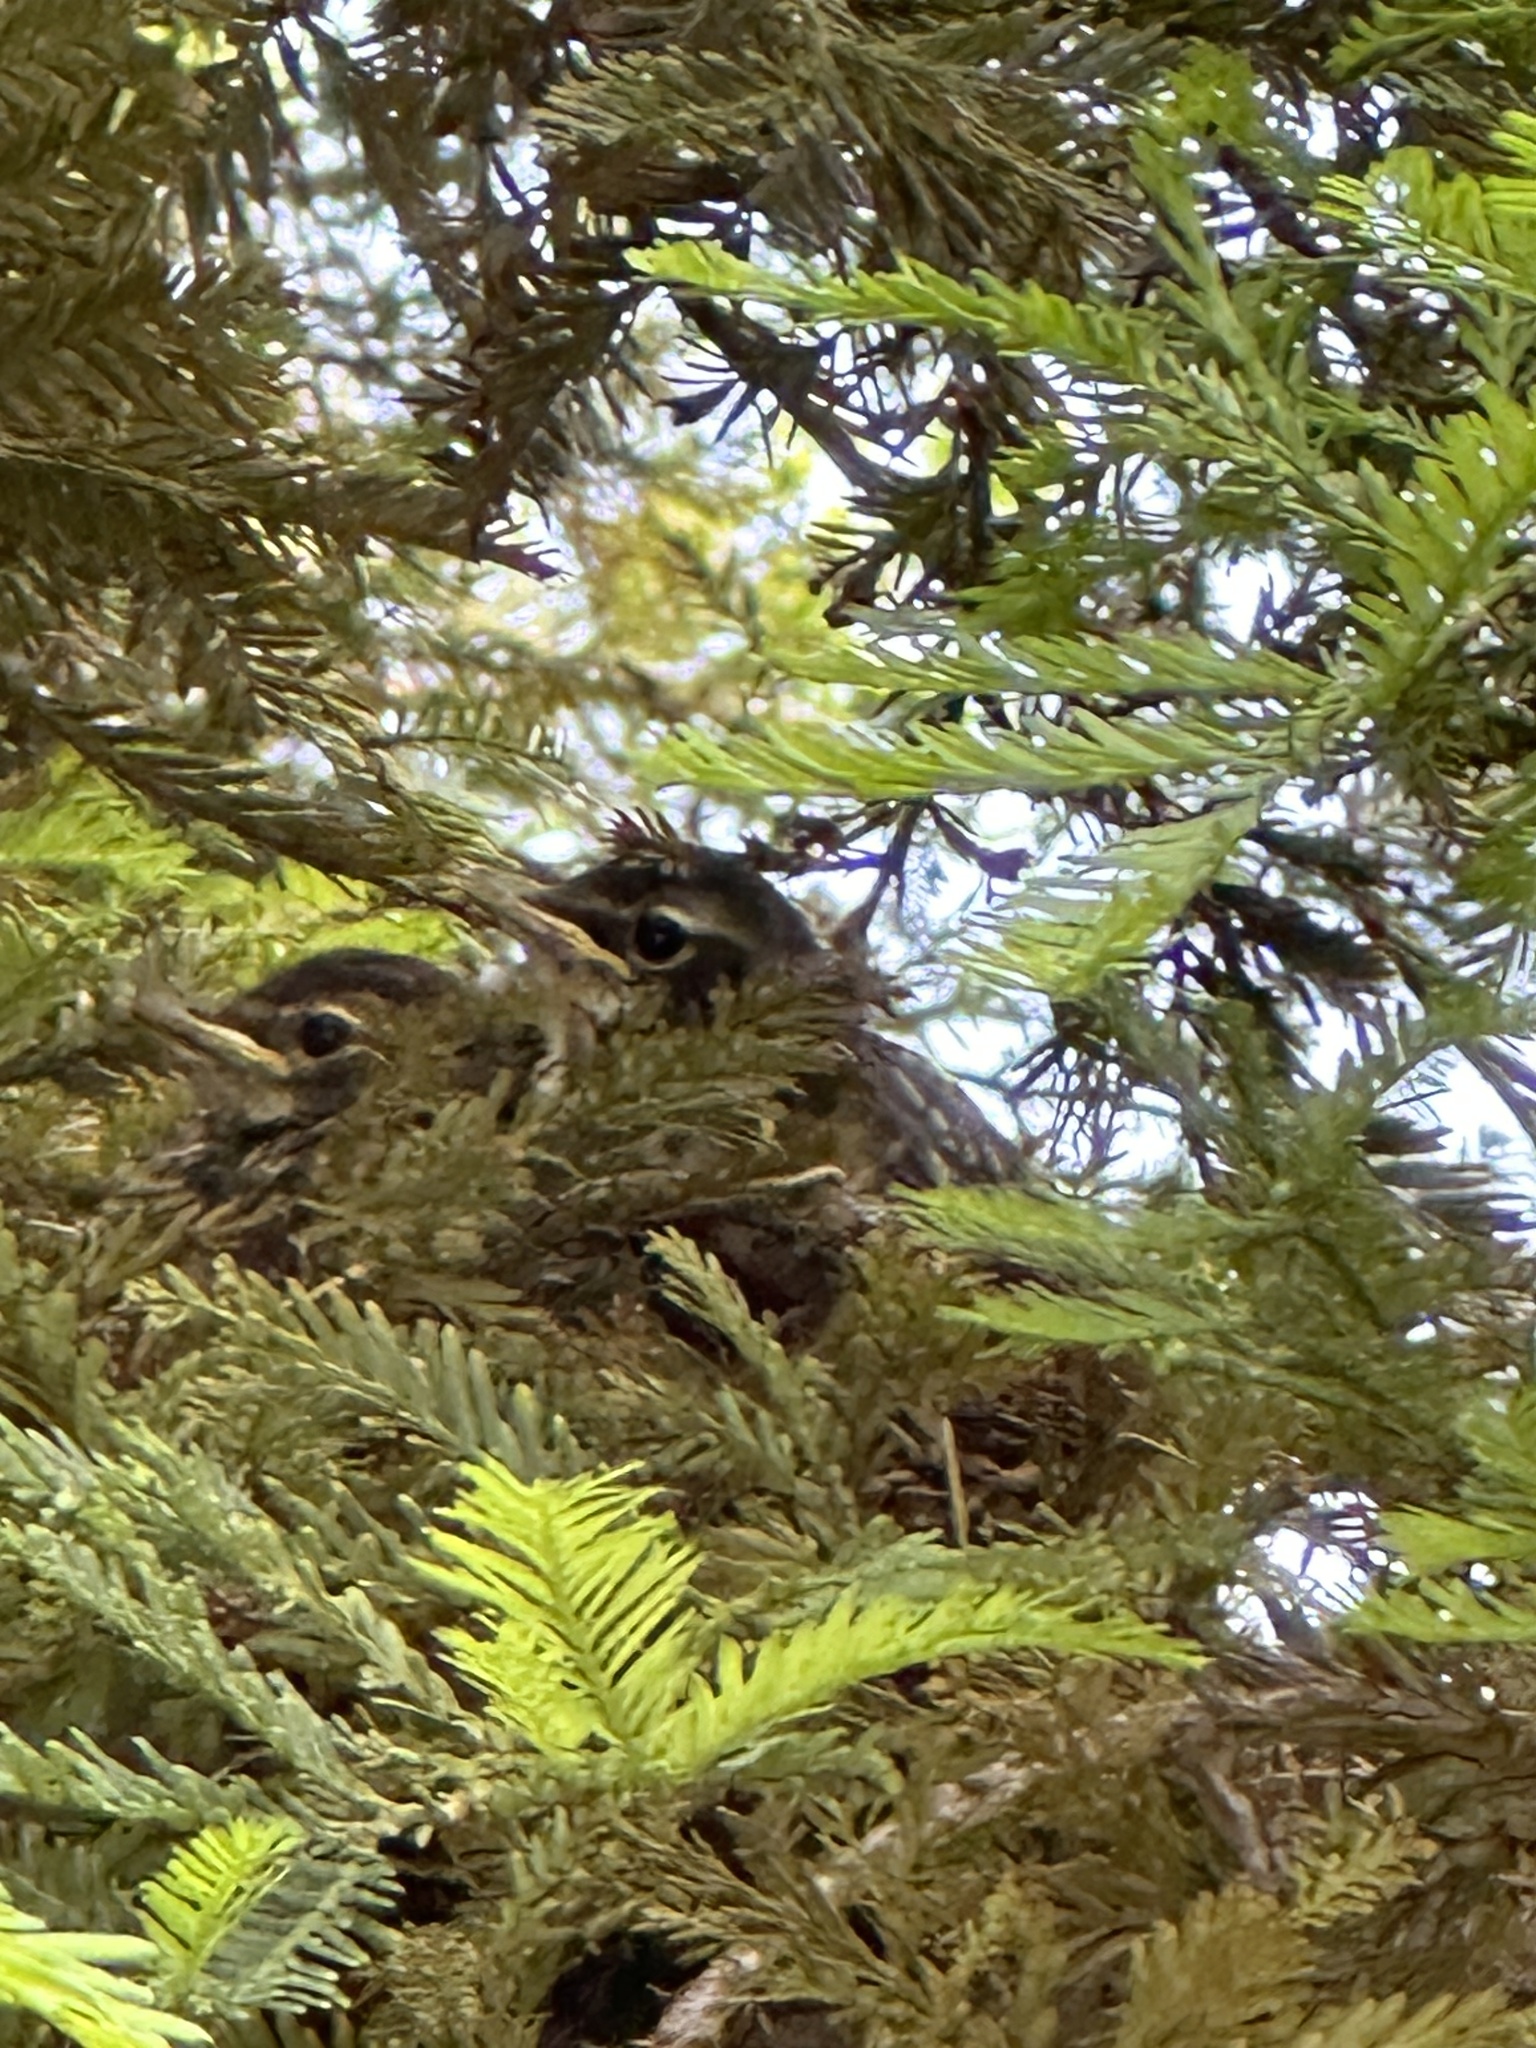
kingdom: Animalia
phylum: Chordata
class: Aves
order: Passeriformes
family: Turdidae
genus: Turdus
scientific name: Turdus migratorius
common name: American robin
